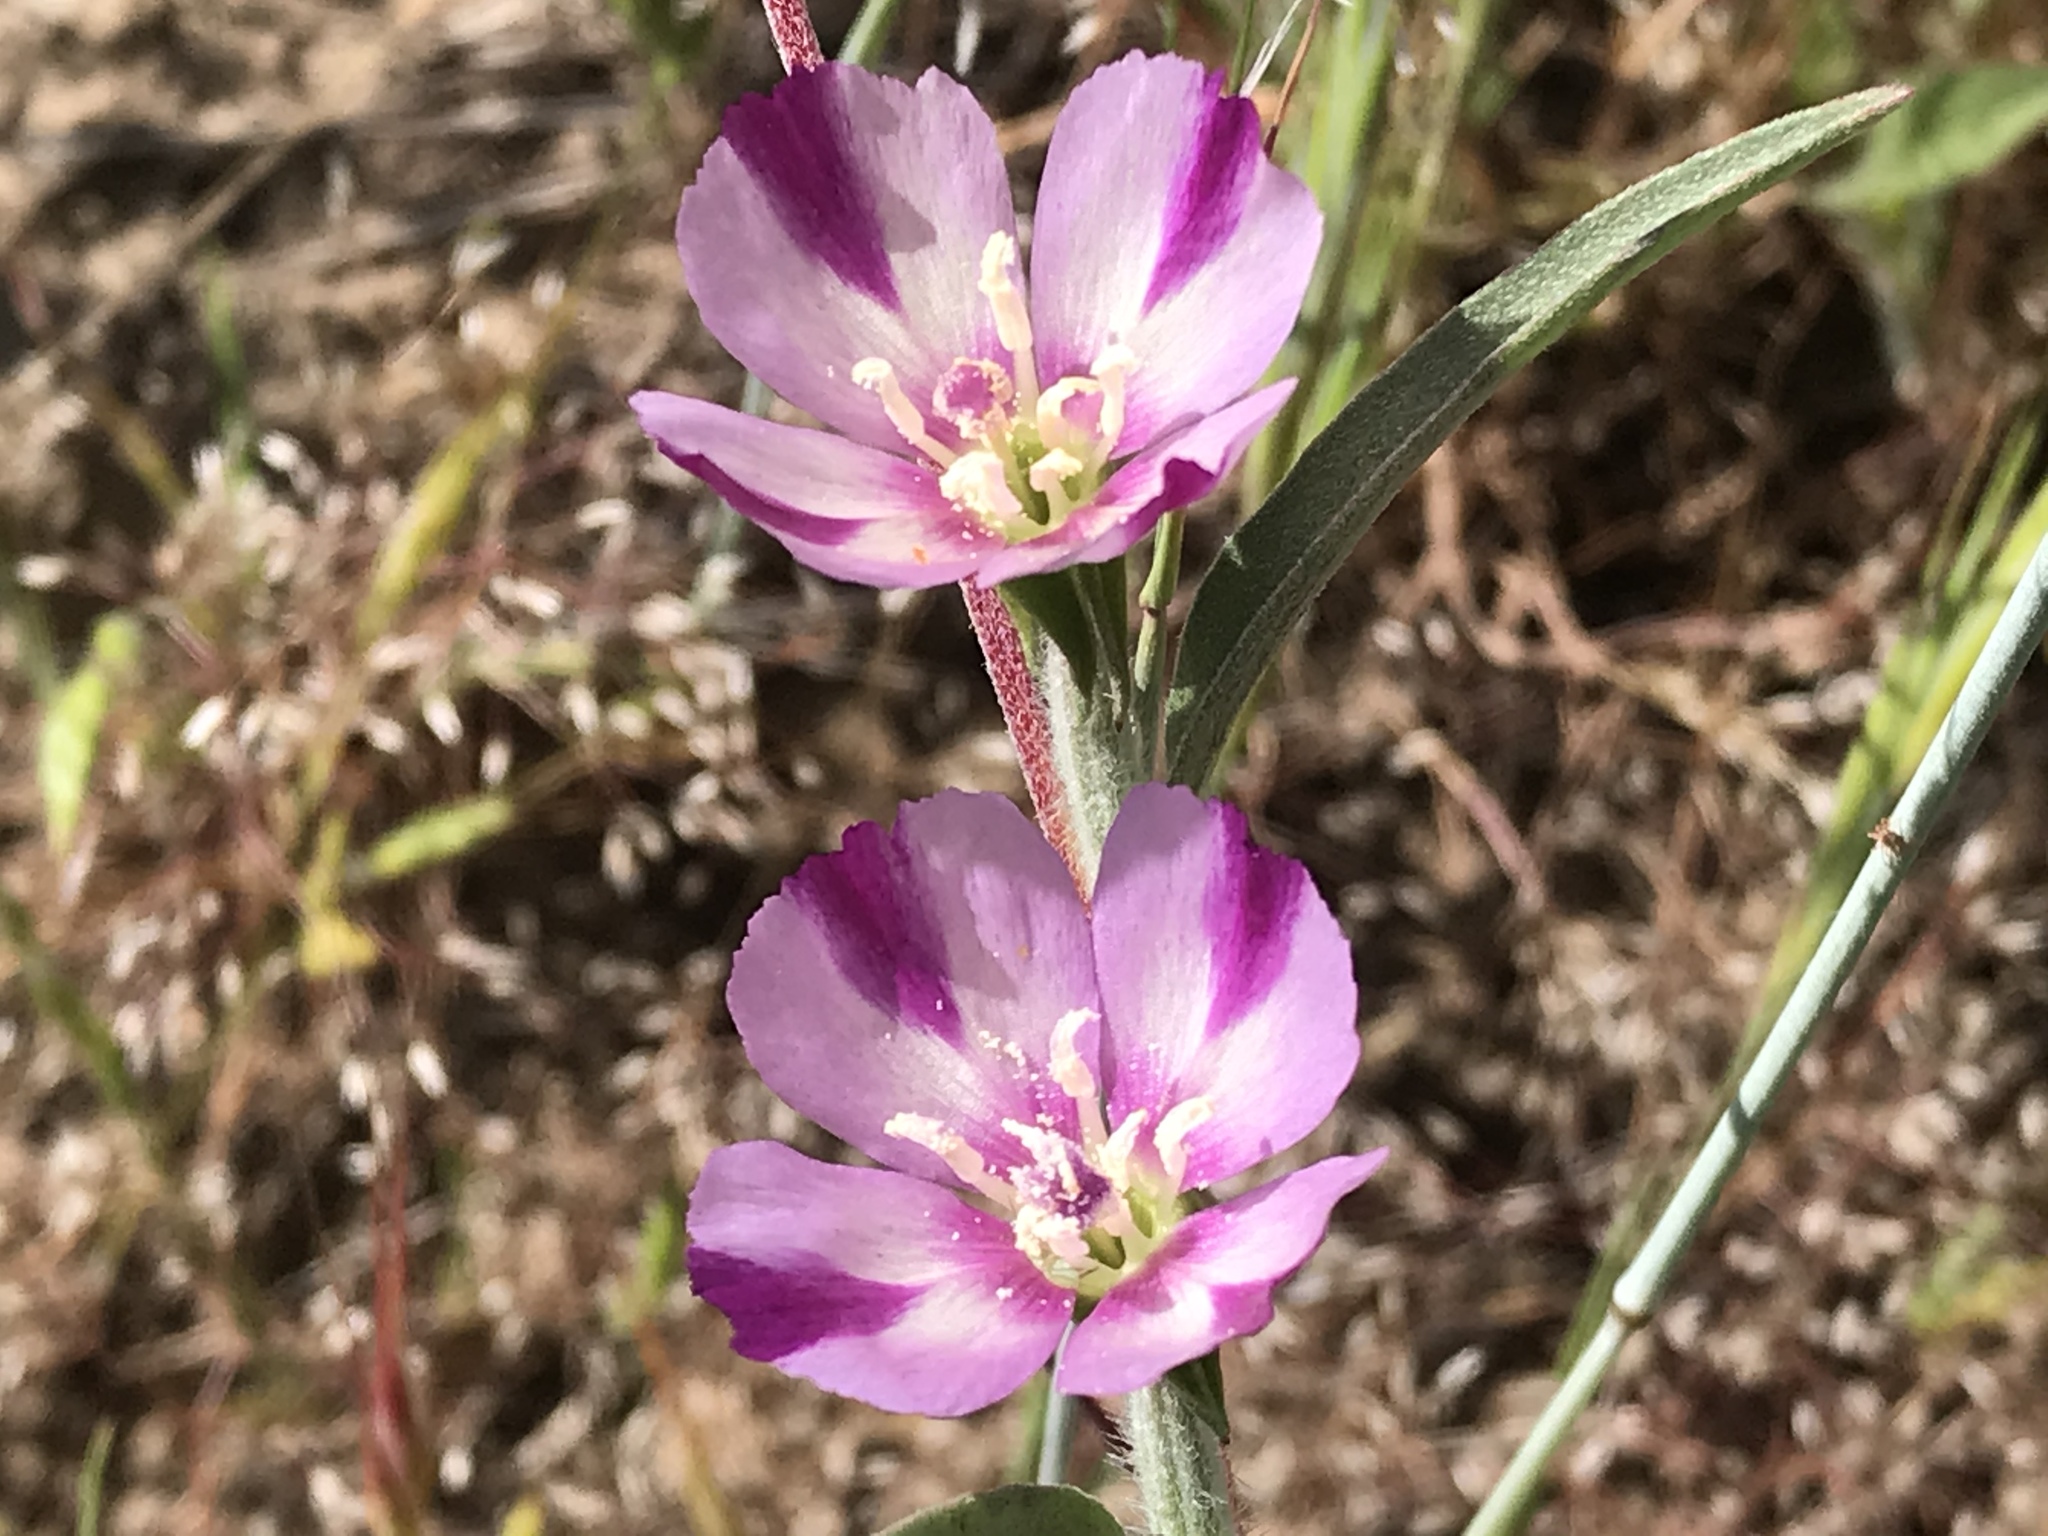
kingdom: Plantae
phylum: Tracheophyta
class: Magnoliopsida
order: Myrtales
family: Onagraceae
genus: Clarkia
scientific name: Clarkia purpurea
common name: Purple clarkia
